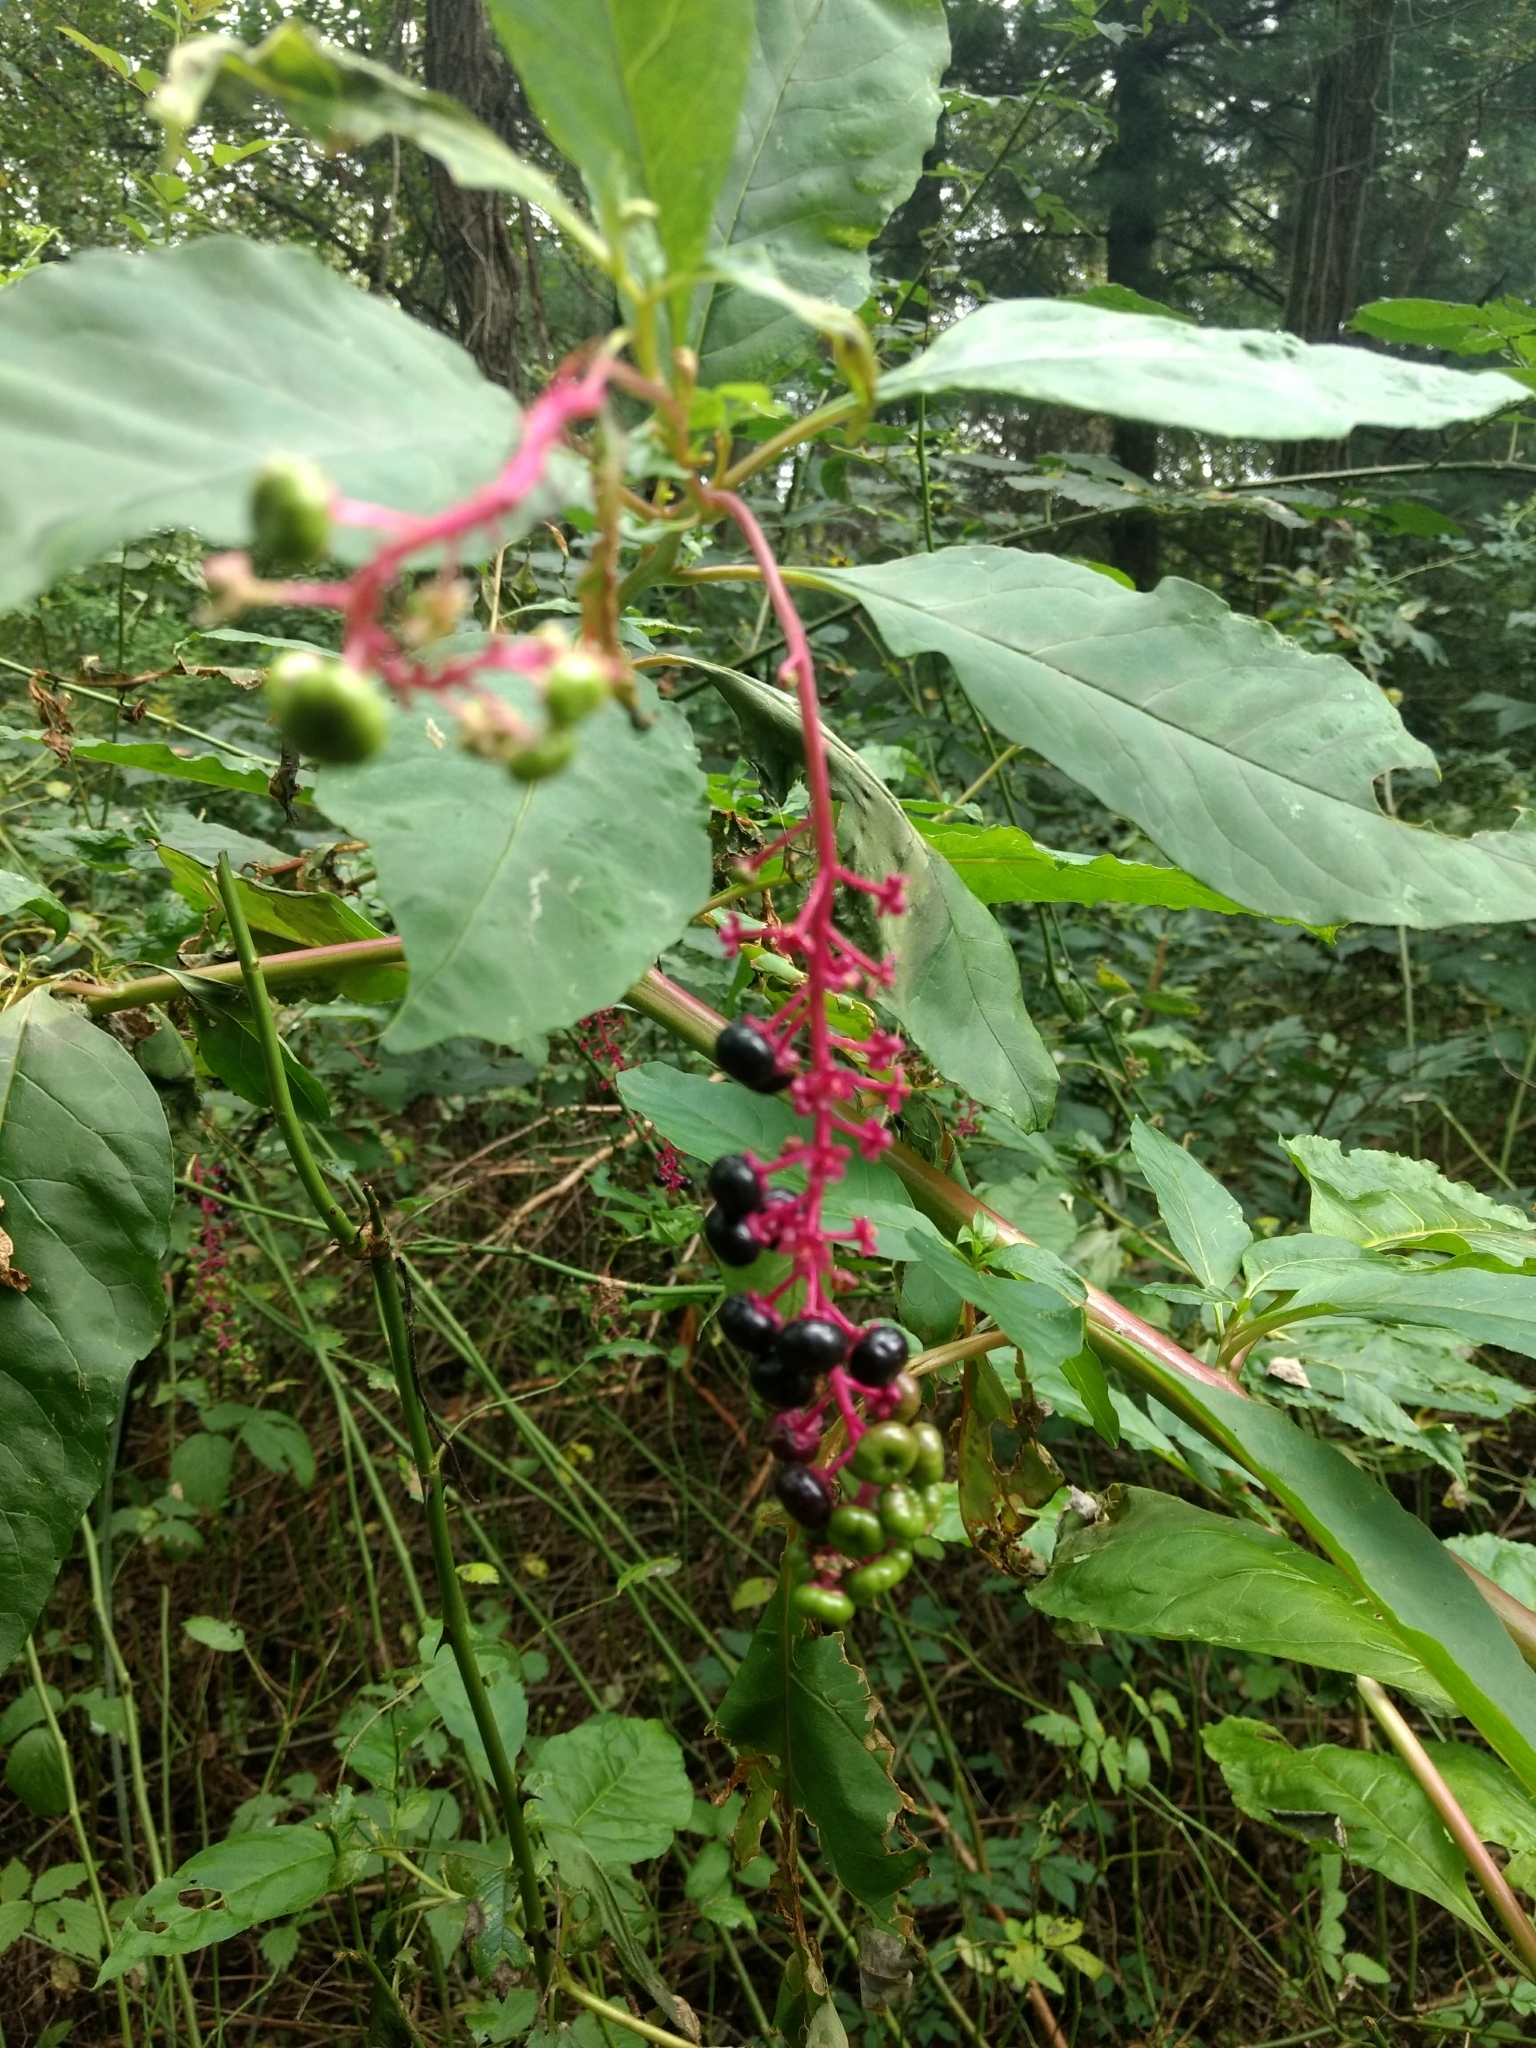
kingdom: Plantae
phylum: Tracheophyta
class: Magnoliopsida
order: Caryophyllales
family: Phytolaccaceae
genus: Phytolacca
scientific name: Phytolacca americana
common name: American pokeweed
